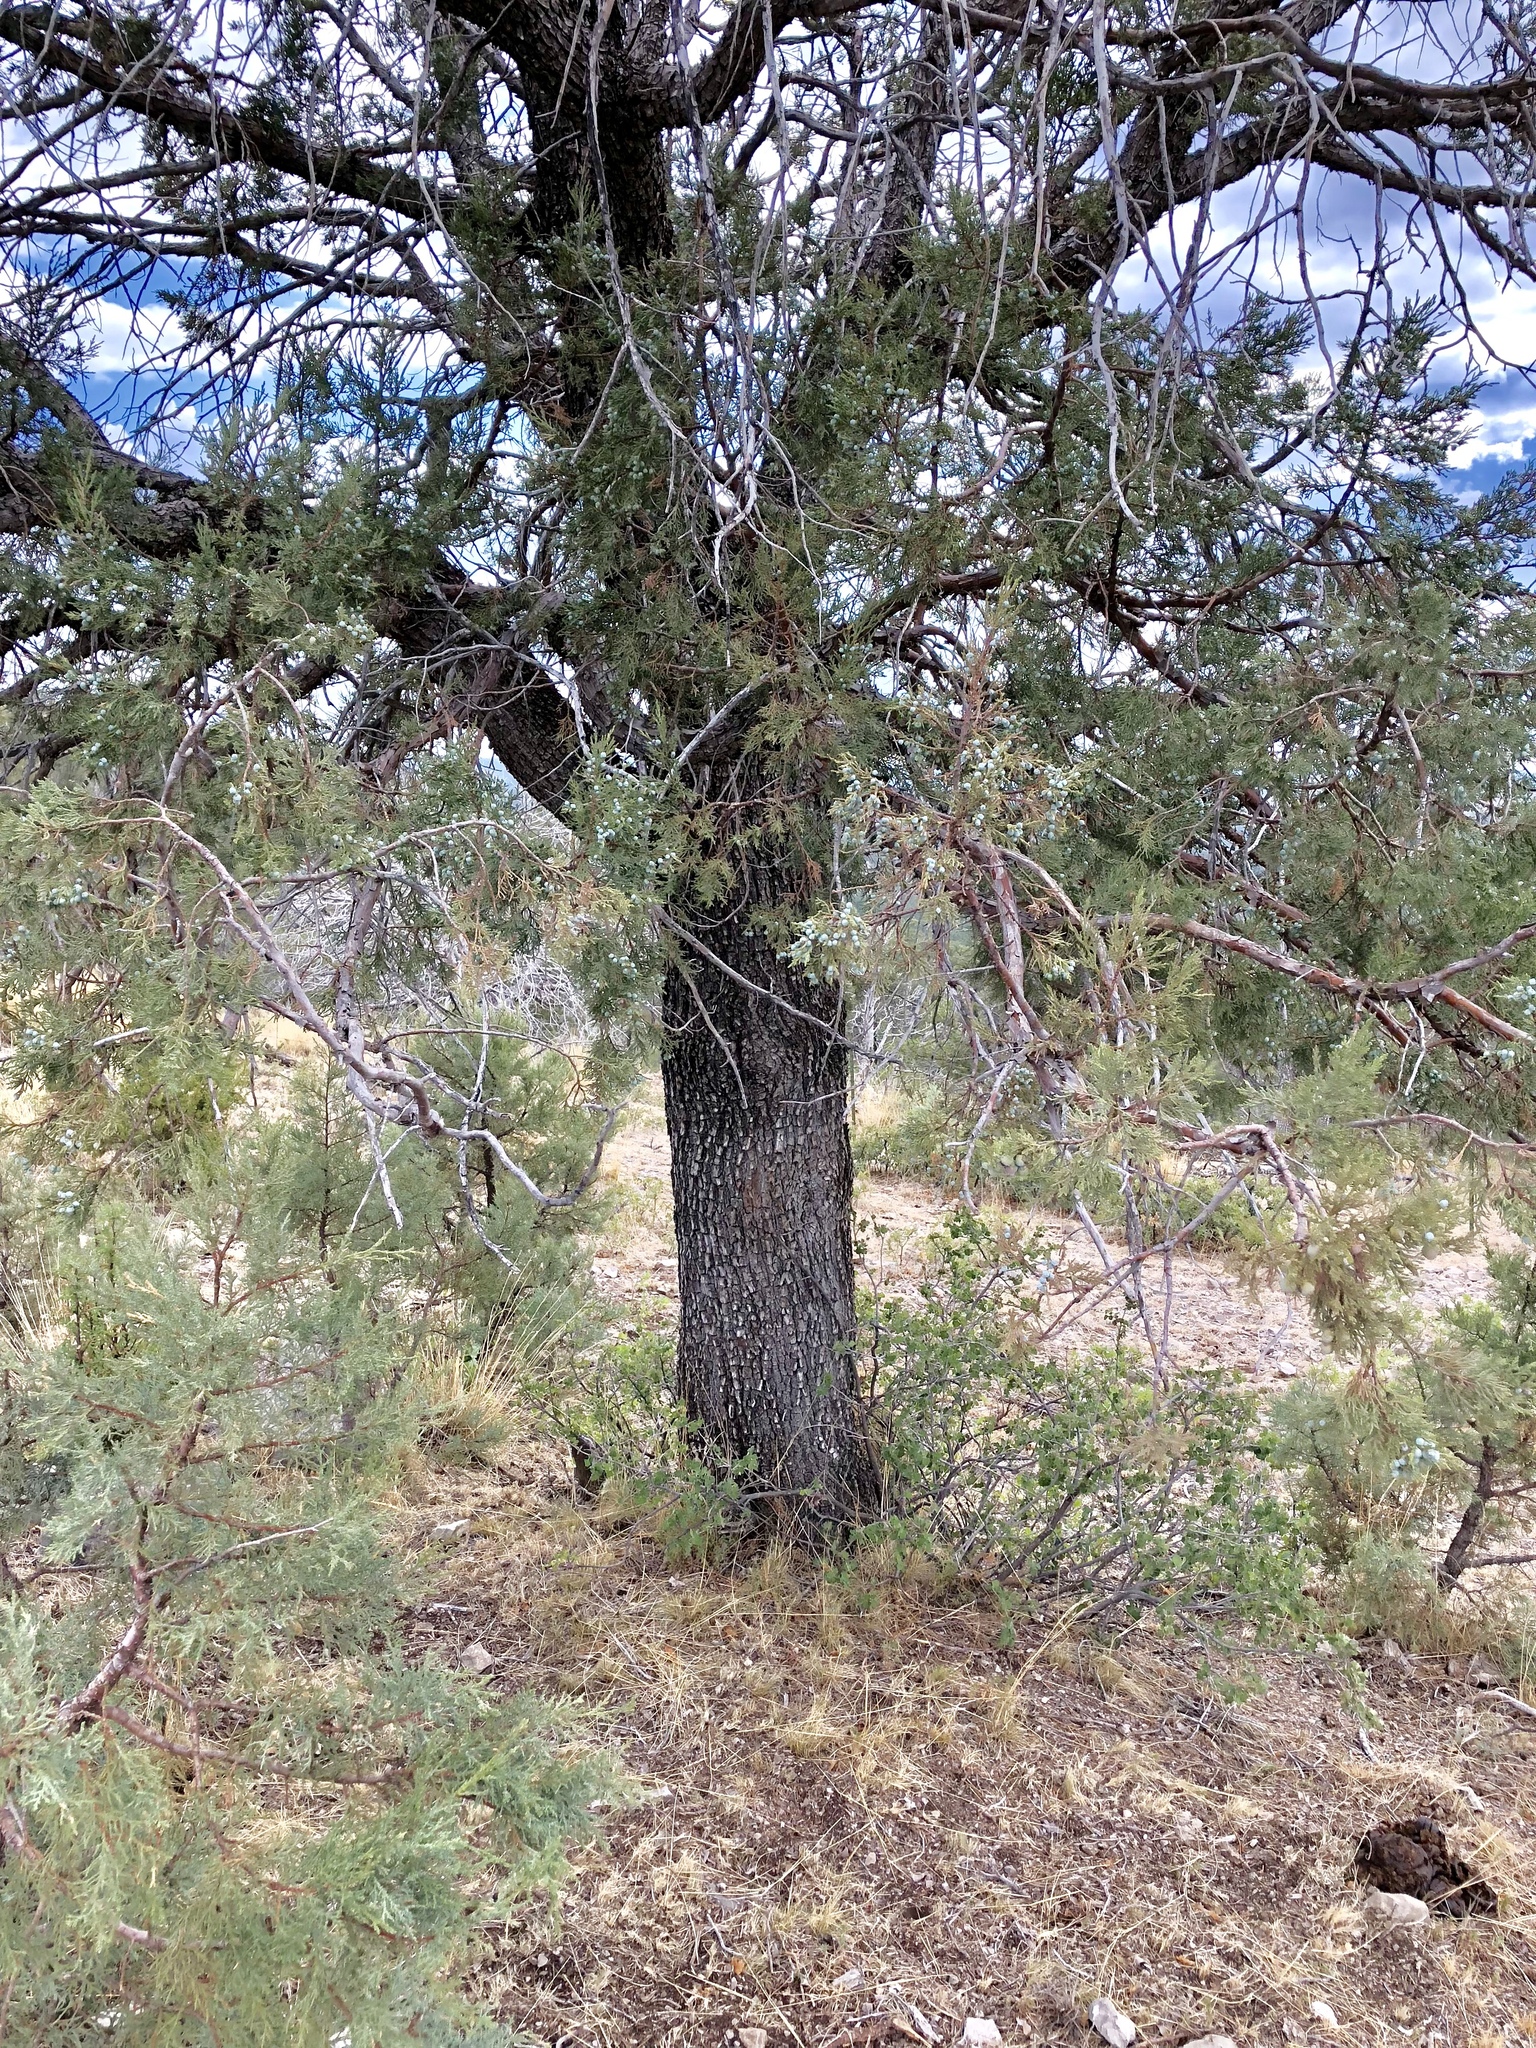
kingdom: Plantae
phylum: Tracheophyta
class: Pinopsida
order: Pinales
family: Cupressaceae
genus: Juniperus
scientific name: Juniperus deppeana
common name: Alligator juniper
